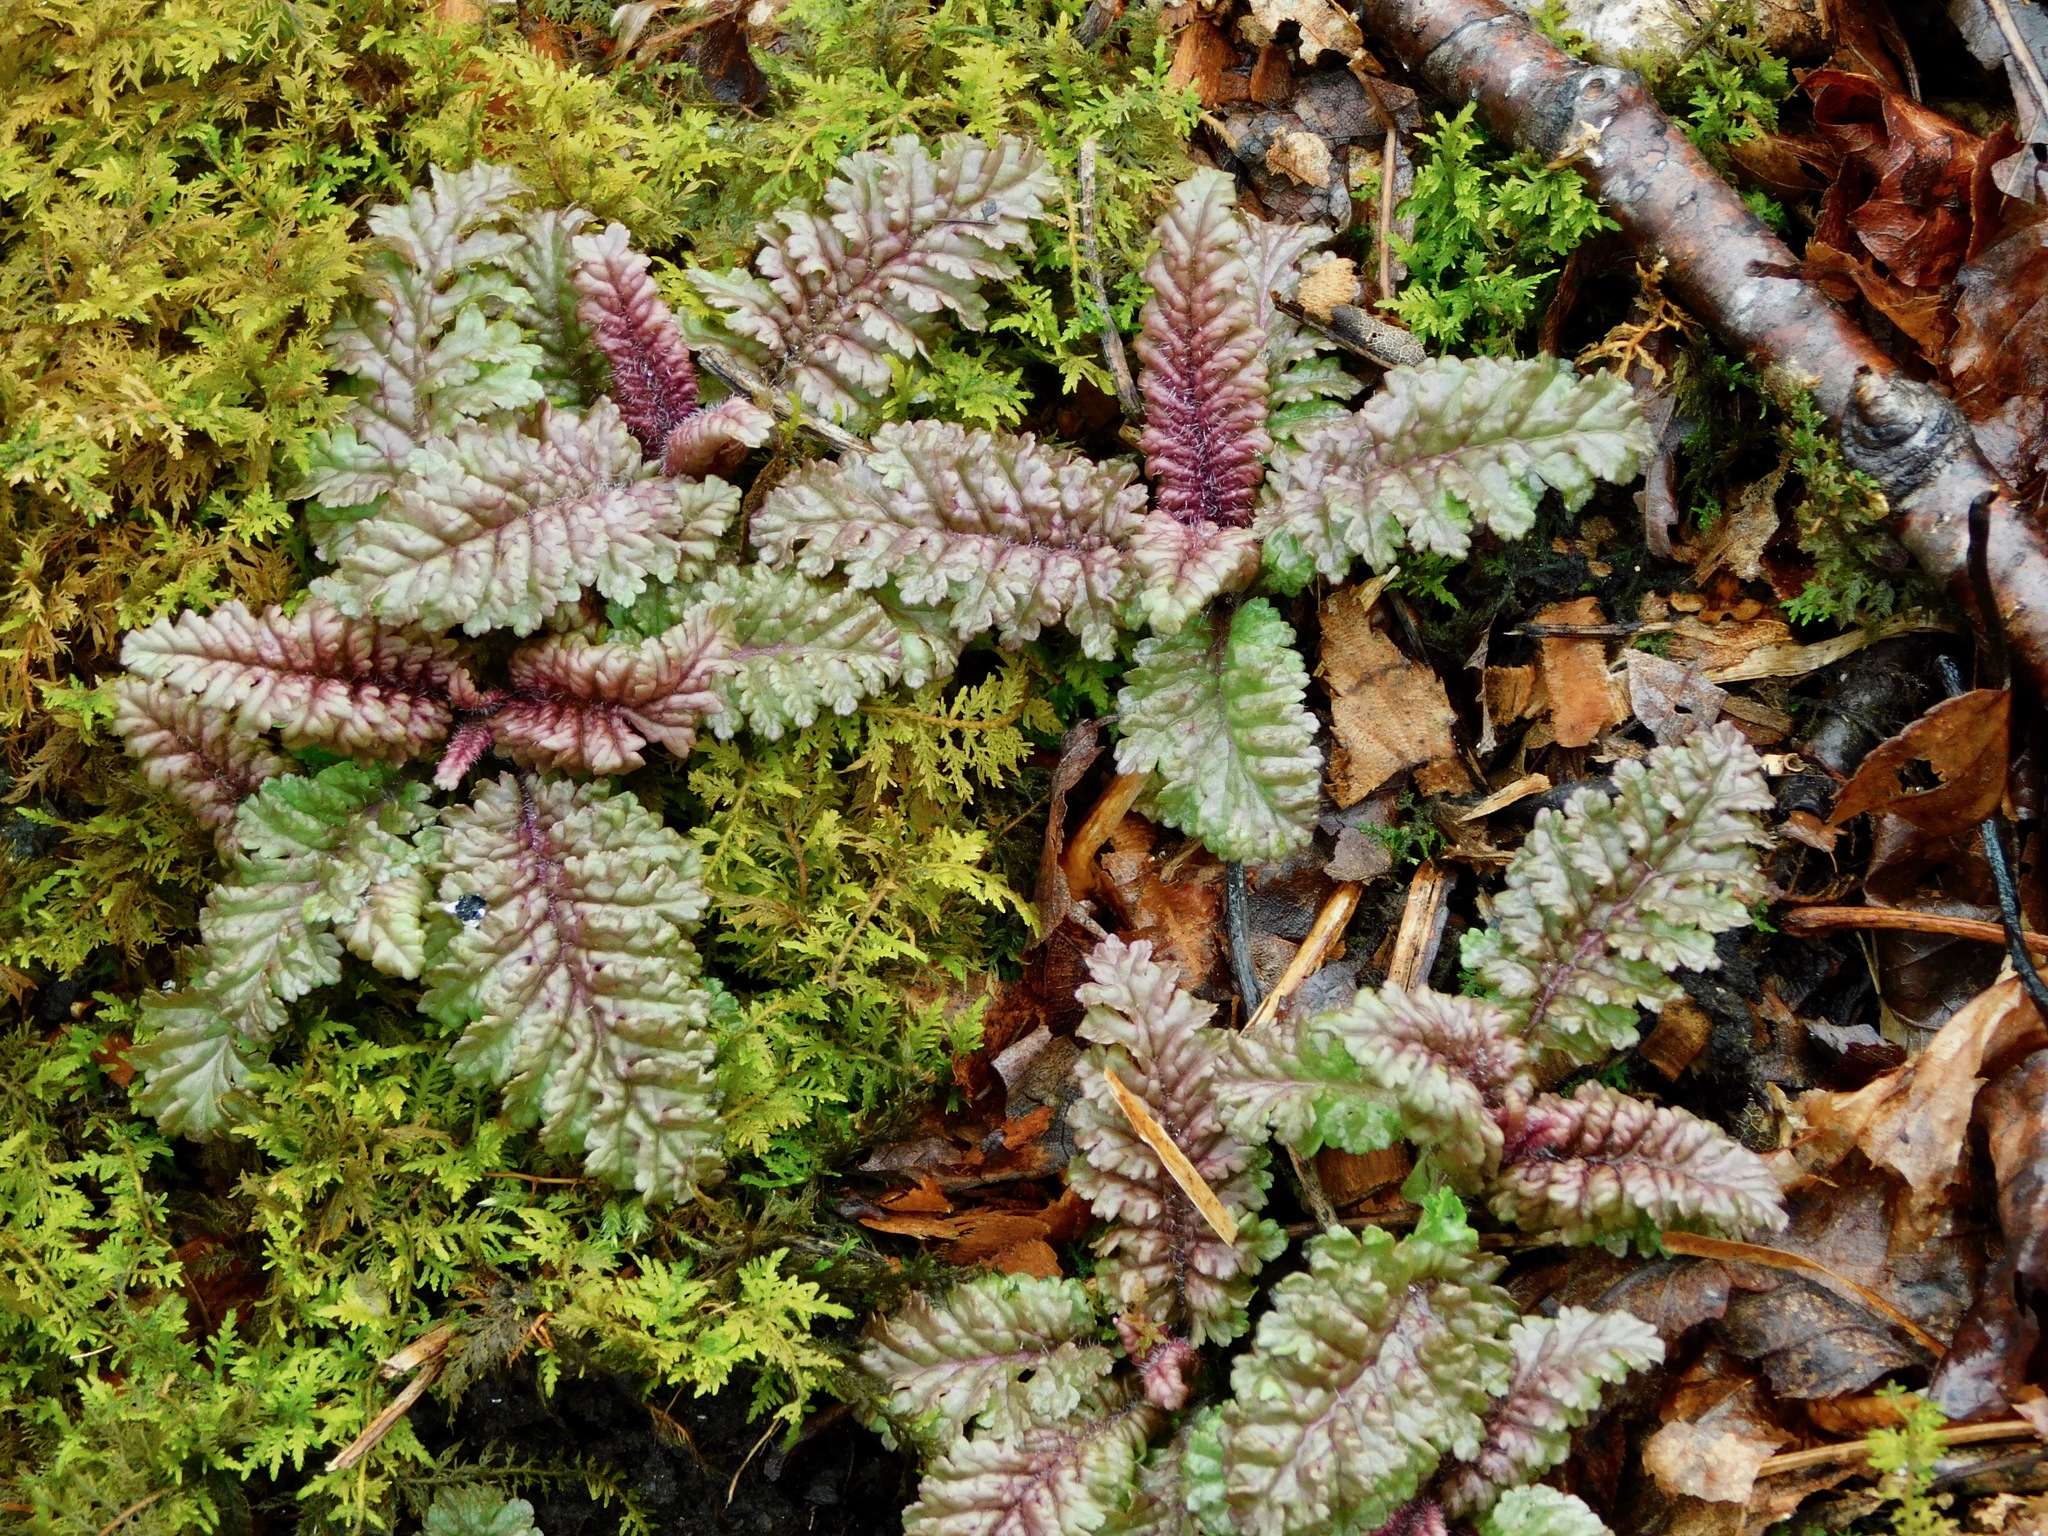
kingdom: Plantae
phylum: Tracheophyta
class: Magnoliopsida
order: Lamiales
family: Orobanchaceae
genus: Pedicularis
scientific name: Pedicularis canadensis
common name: Early lousewort
